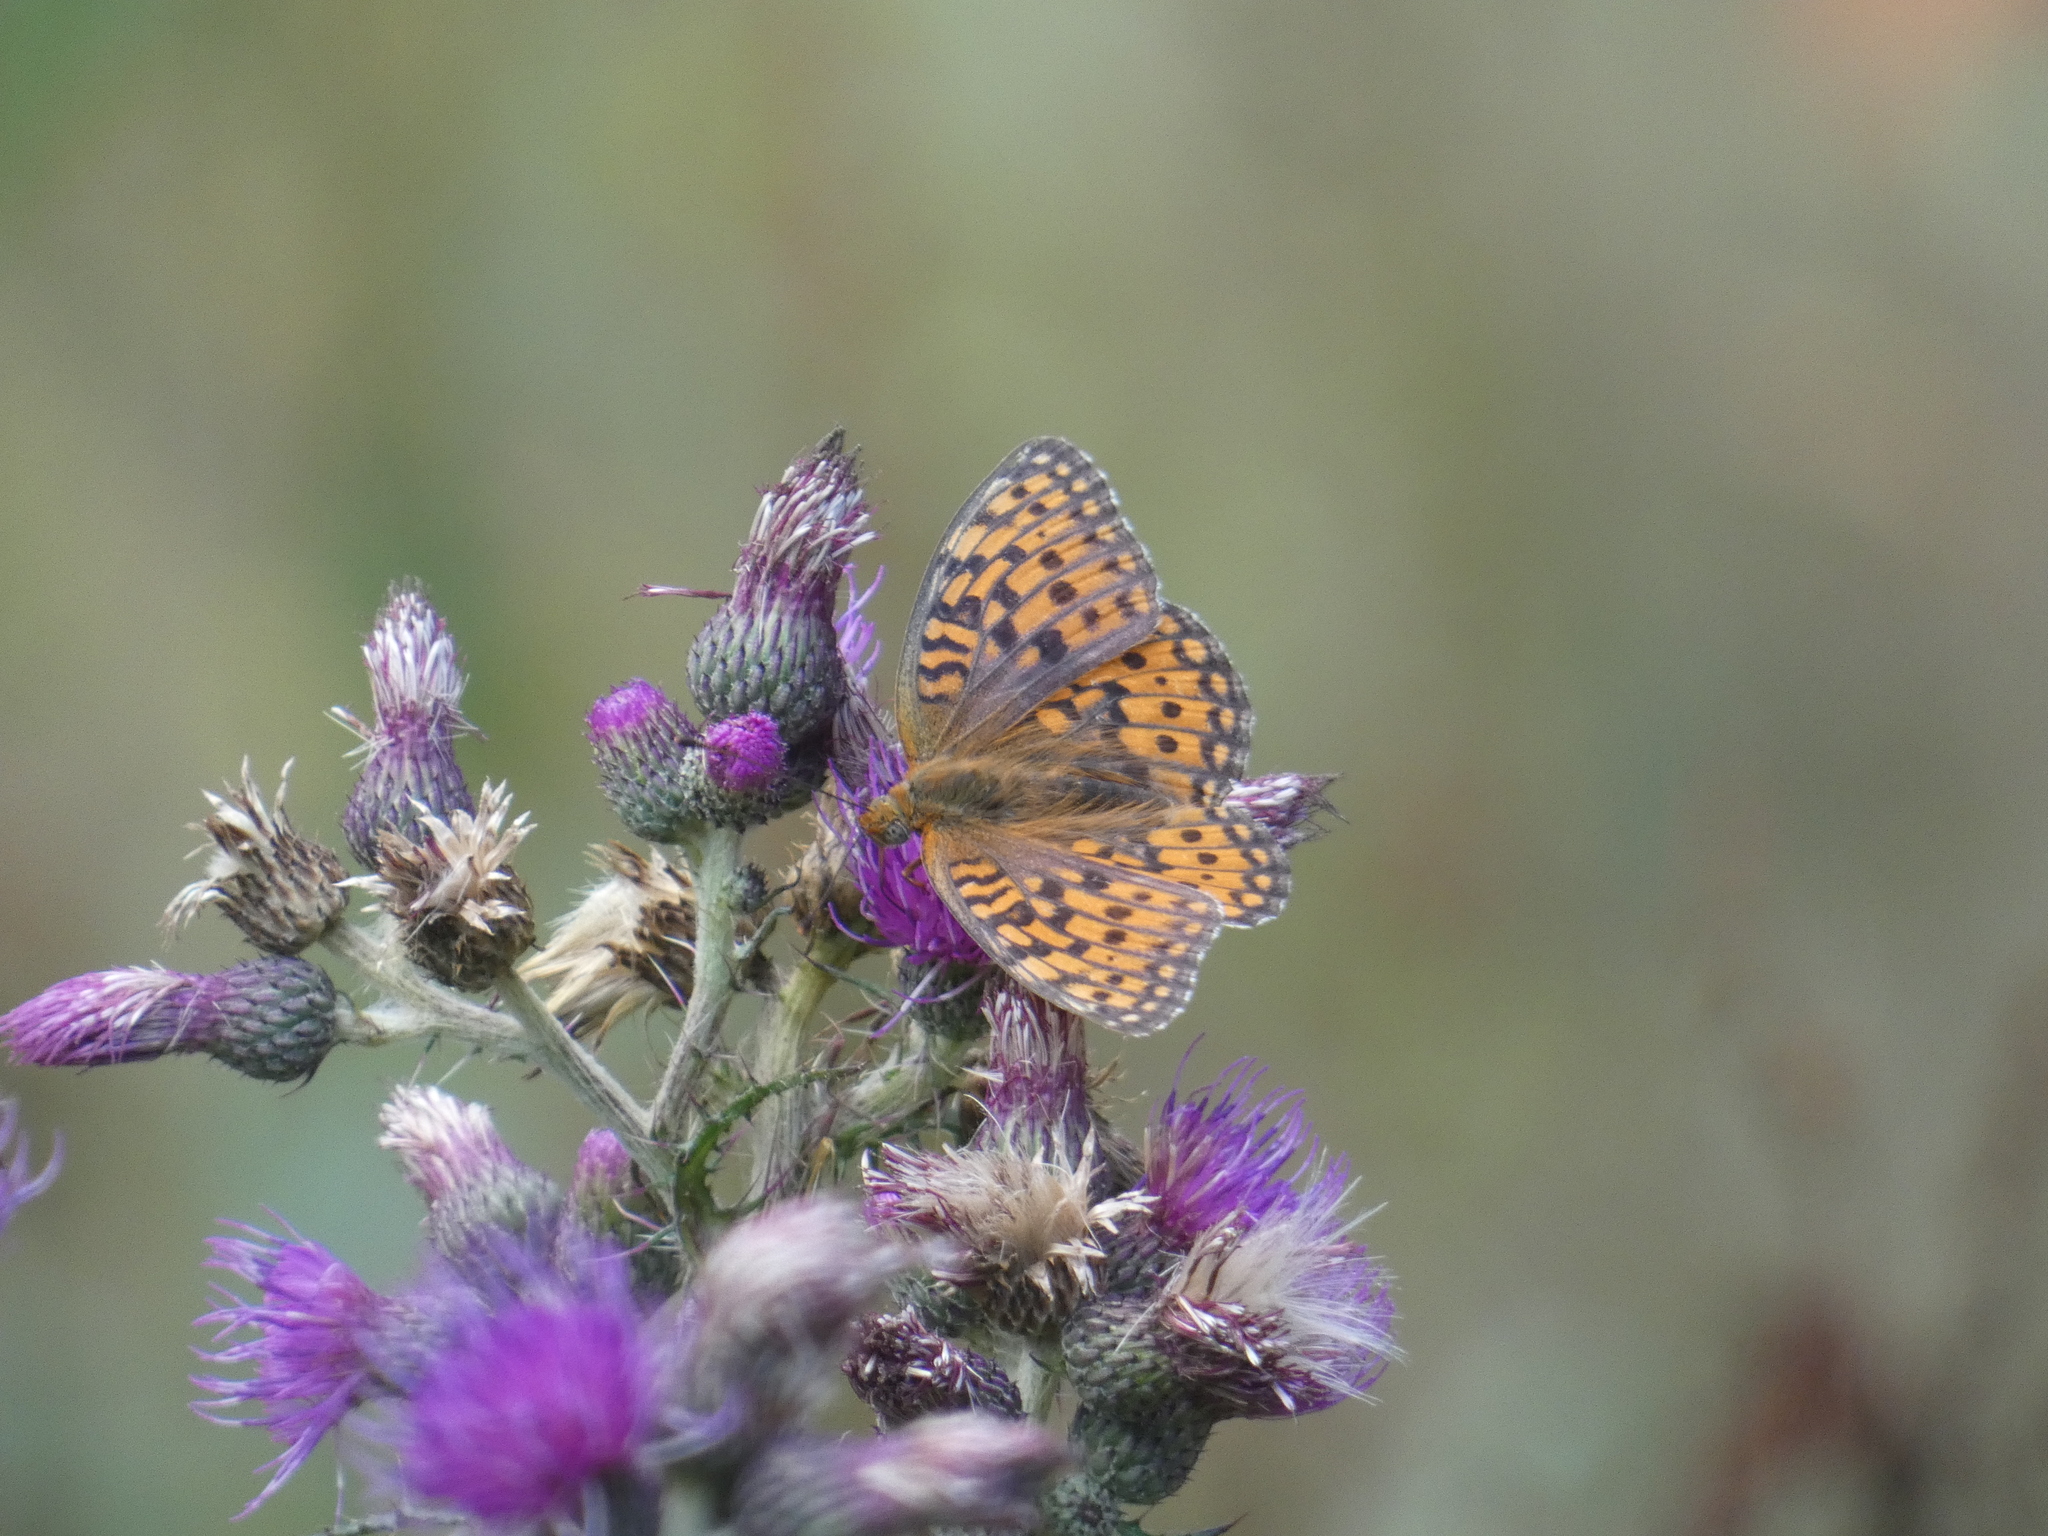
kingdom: Animalia
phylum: Arthropoda
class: Insecta
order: Lepidoptera
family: Nymphalidae
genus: Fabriciana
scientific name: Fabriciana niobe
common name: Niobe fritillary
